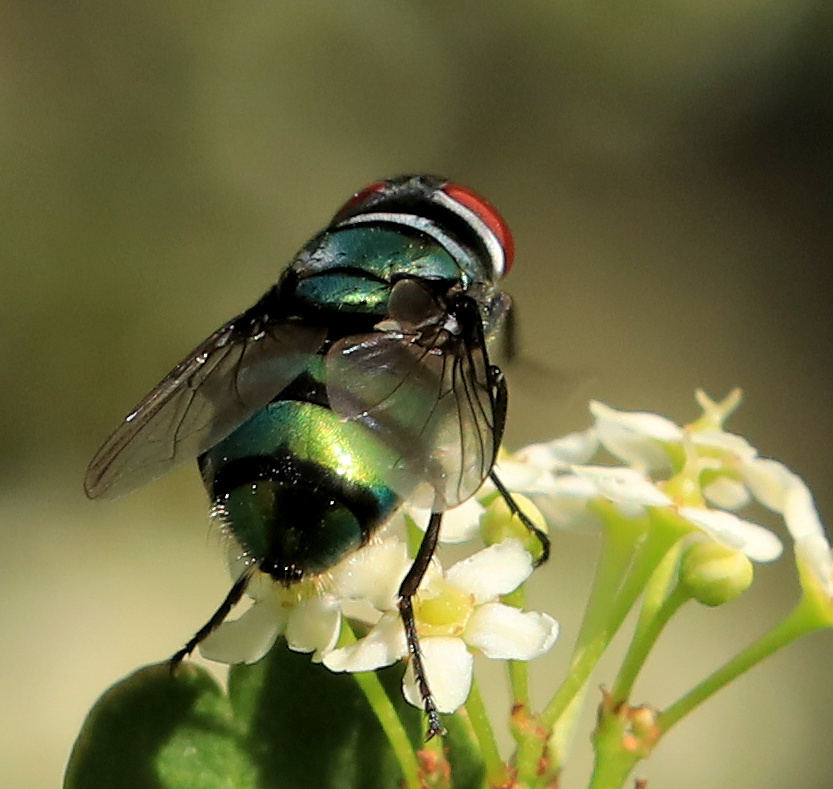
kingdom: Animalia
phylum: Arthropoda
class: Insecta
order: Diptera
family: Calliphoridae
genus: Chrysomya
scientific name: Chrysomya putoria
